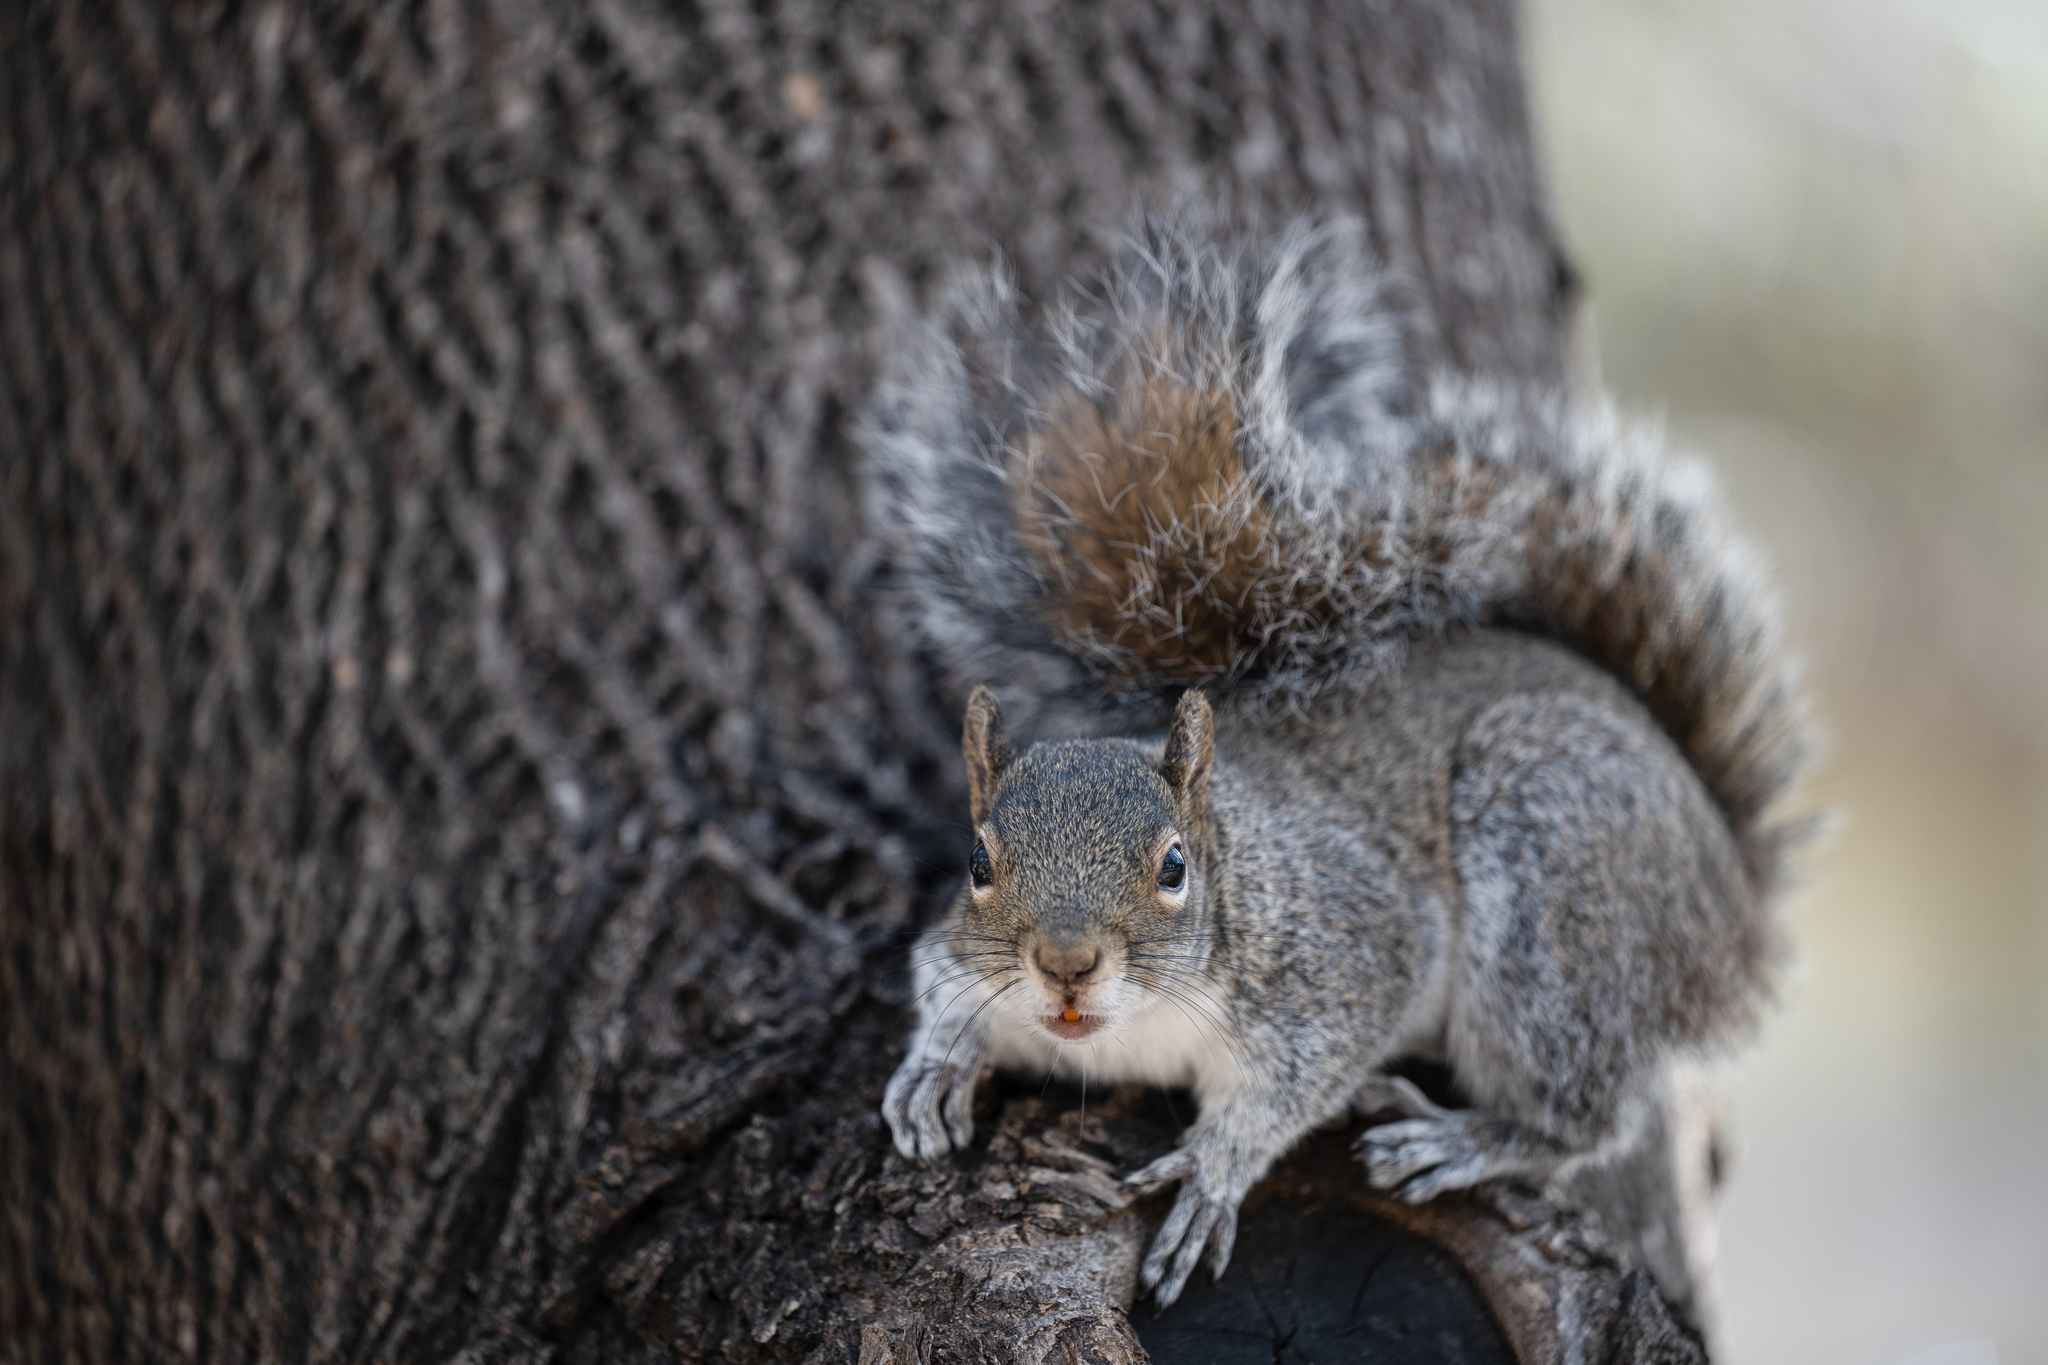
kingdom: Animalia
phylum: Chordata
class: Mammalia
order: Rodentia
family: Sciuridae
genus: Sciurus
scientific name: Sciurus alleni
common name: Allen's squirrel
